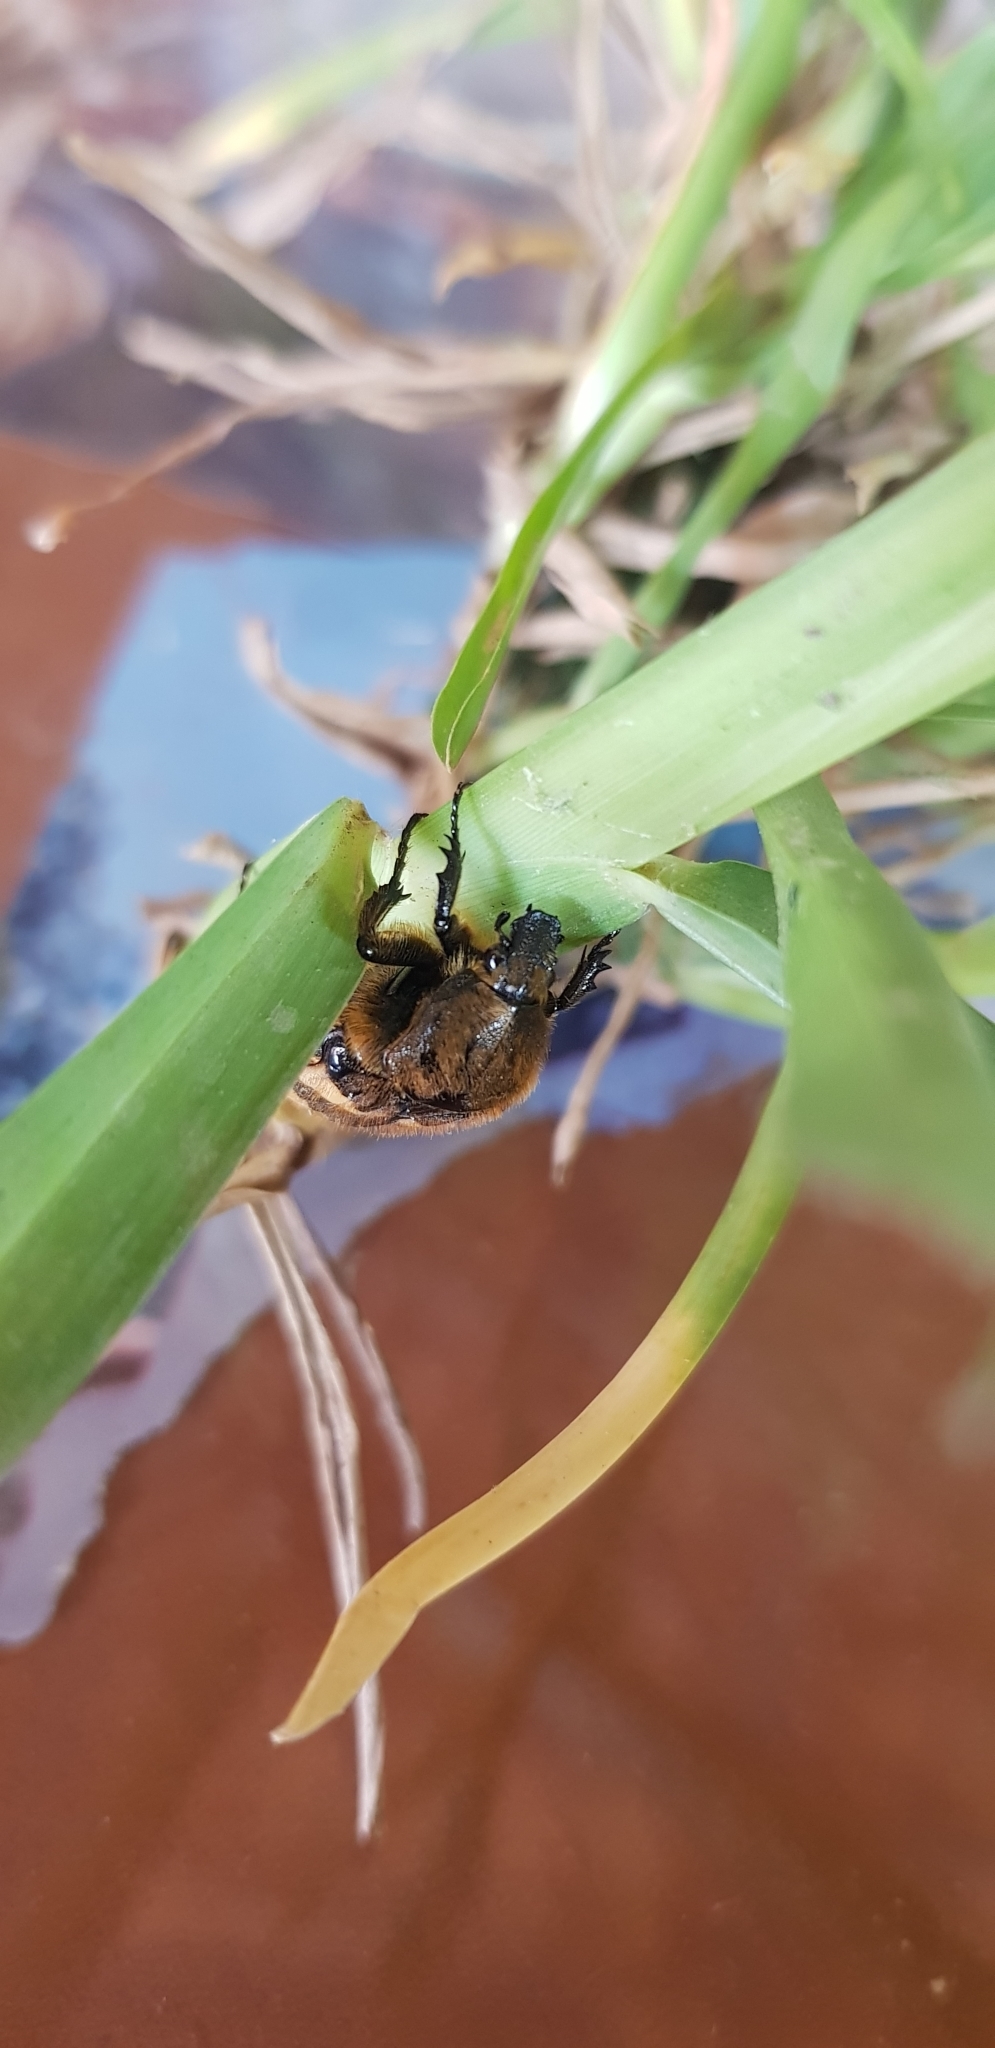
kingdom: Animalia
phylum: Arthropoda
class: Insecta
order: Coleoptera
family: Scarabaeidae
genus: Euphoria
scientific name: Euphoria basalis
